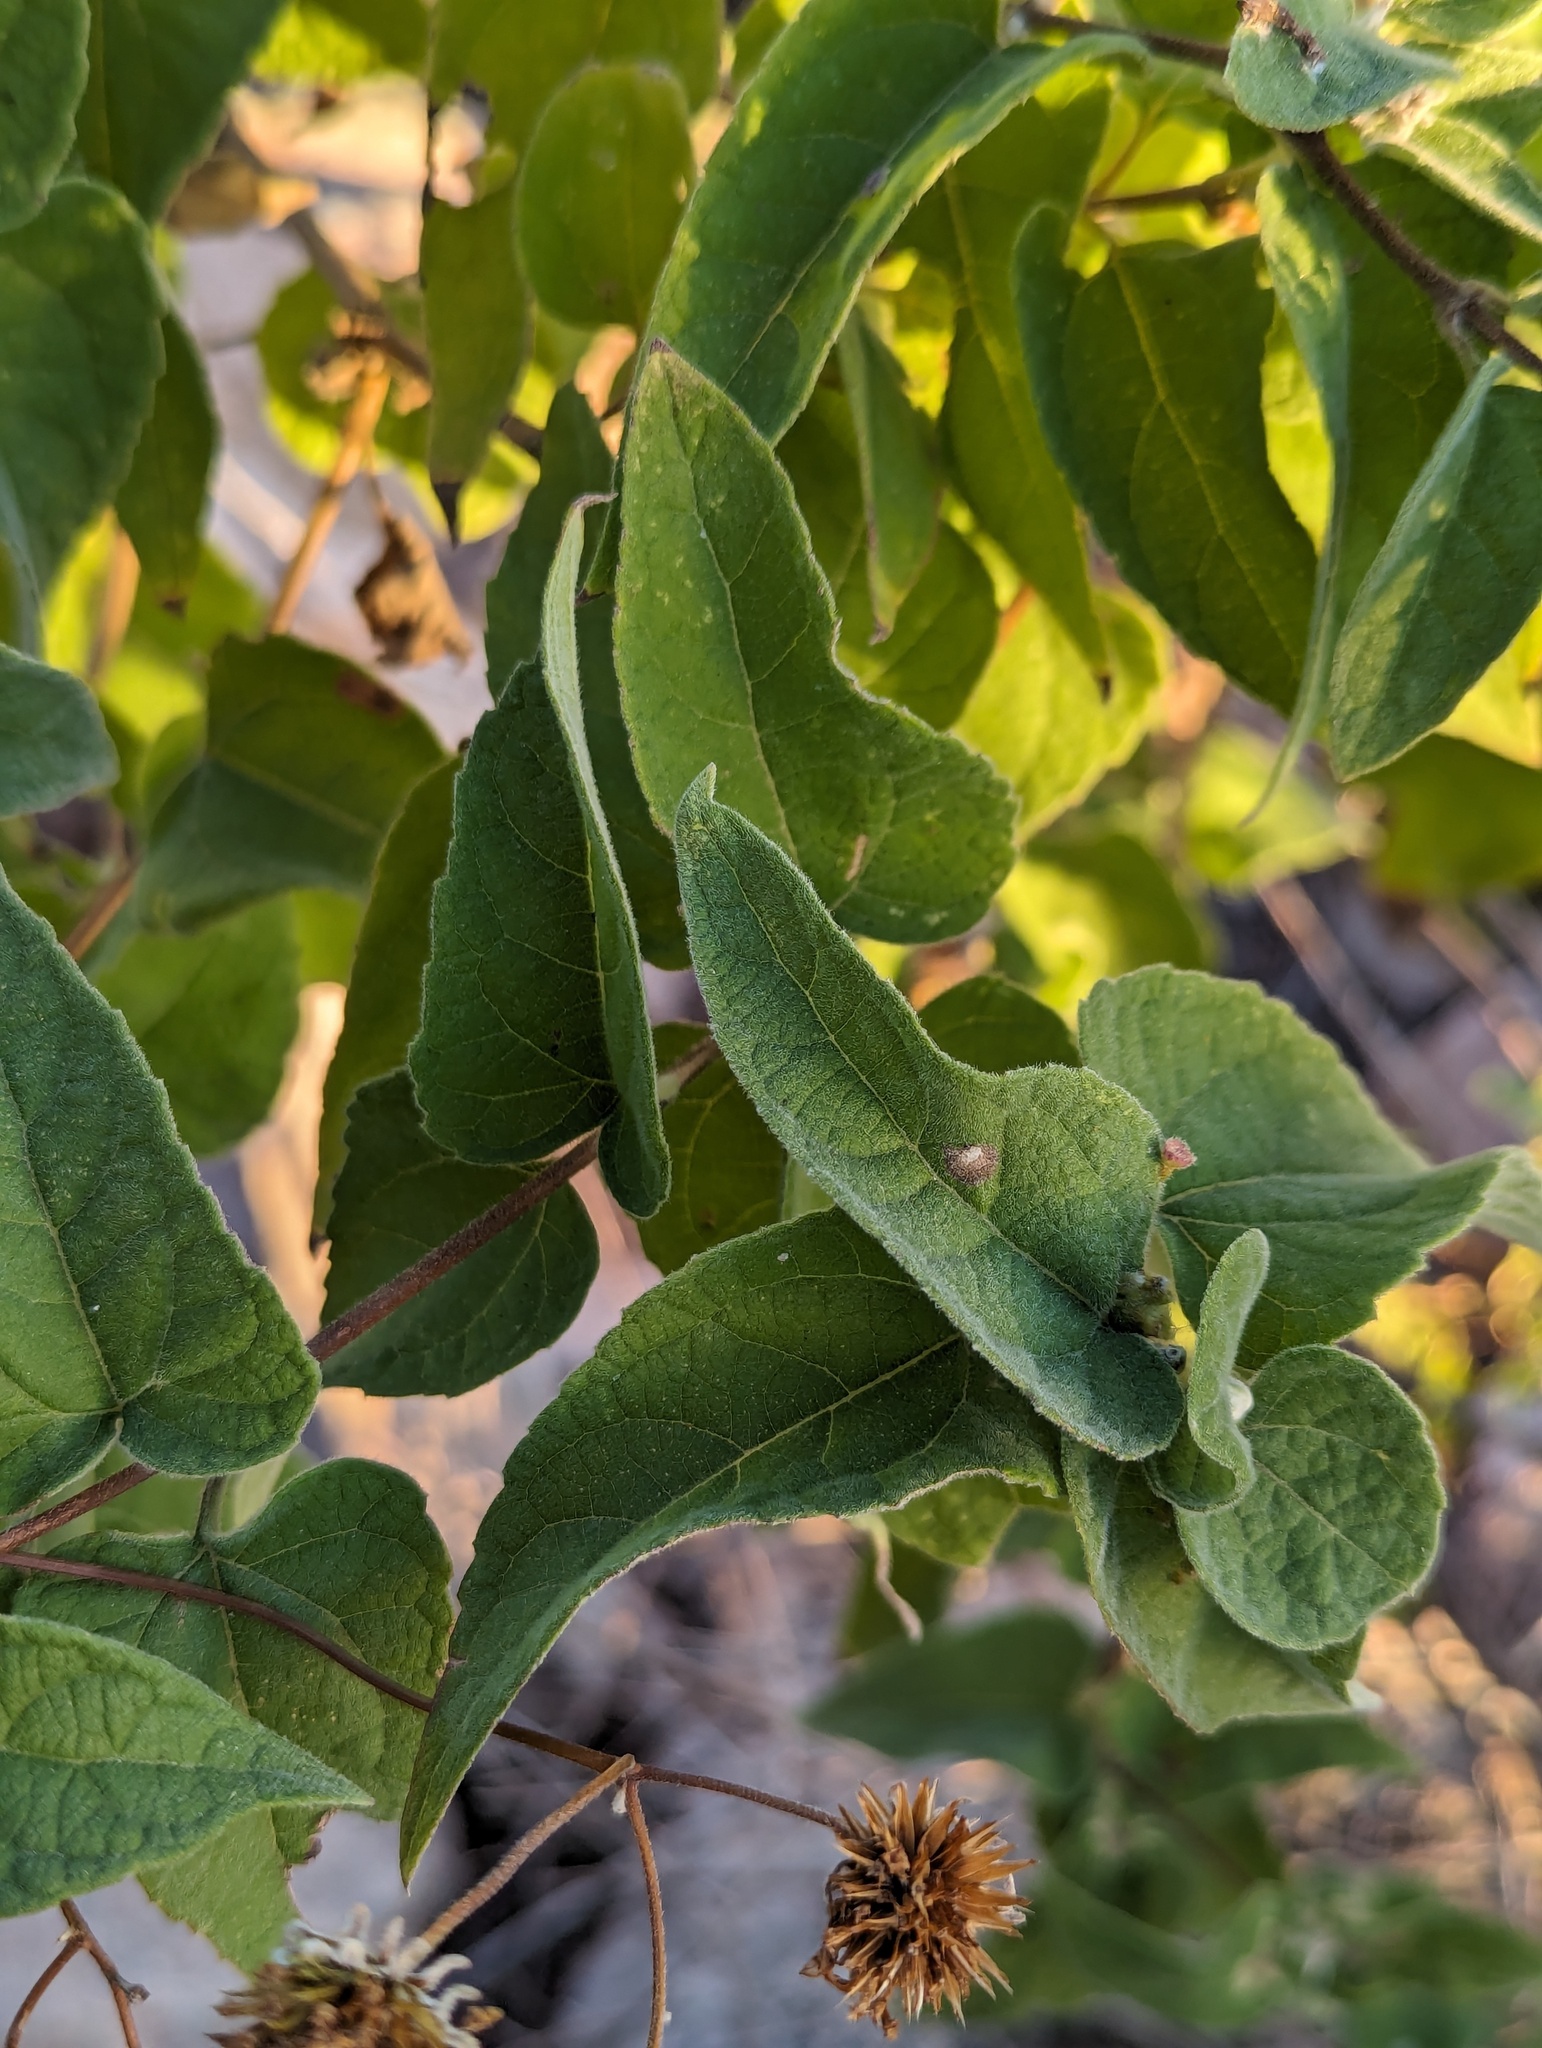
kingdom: Plantae
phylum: Tracheophyta
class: Magnoliopsida
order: Asterales
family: Asteraceae
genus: Bahiopsis
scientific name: Bahiopsis tomentosa
